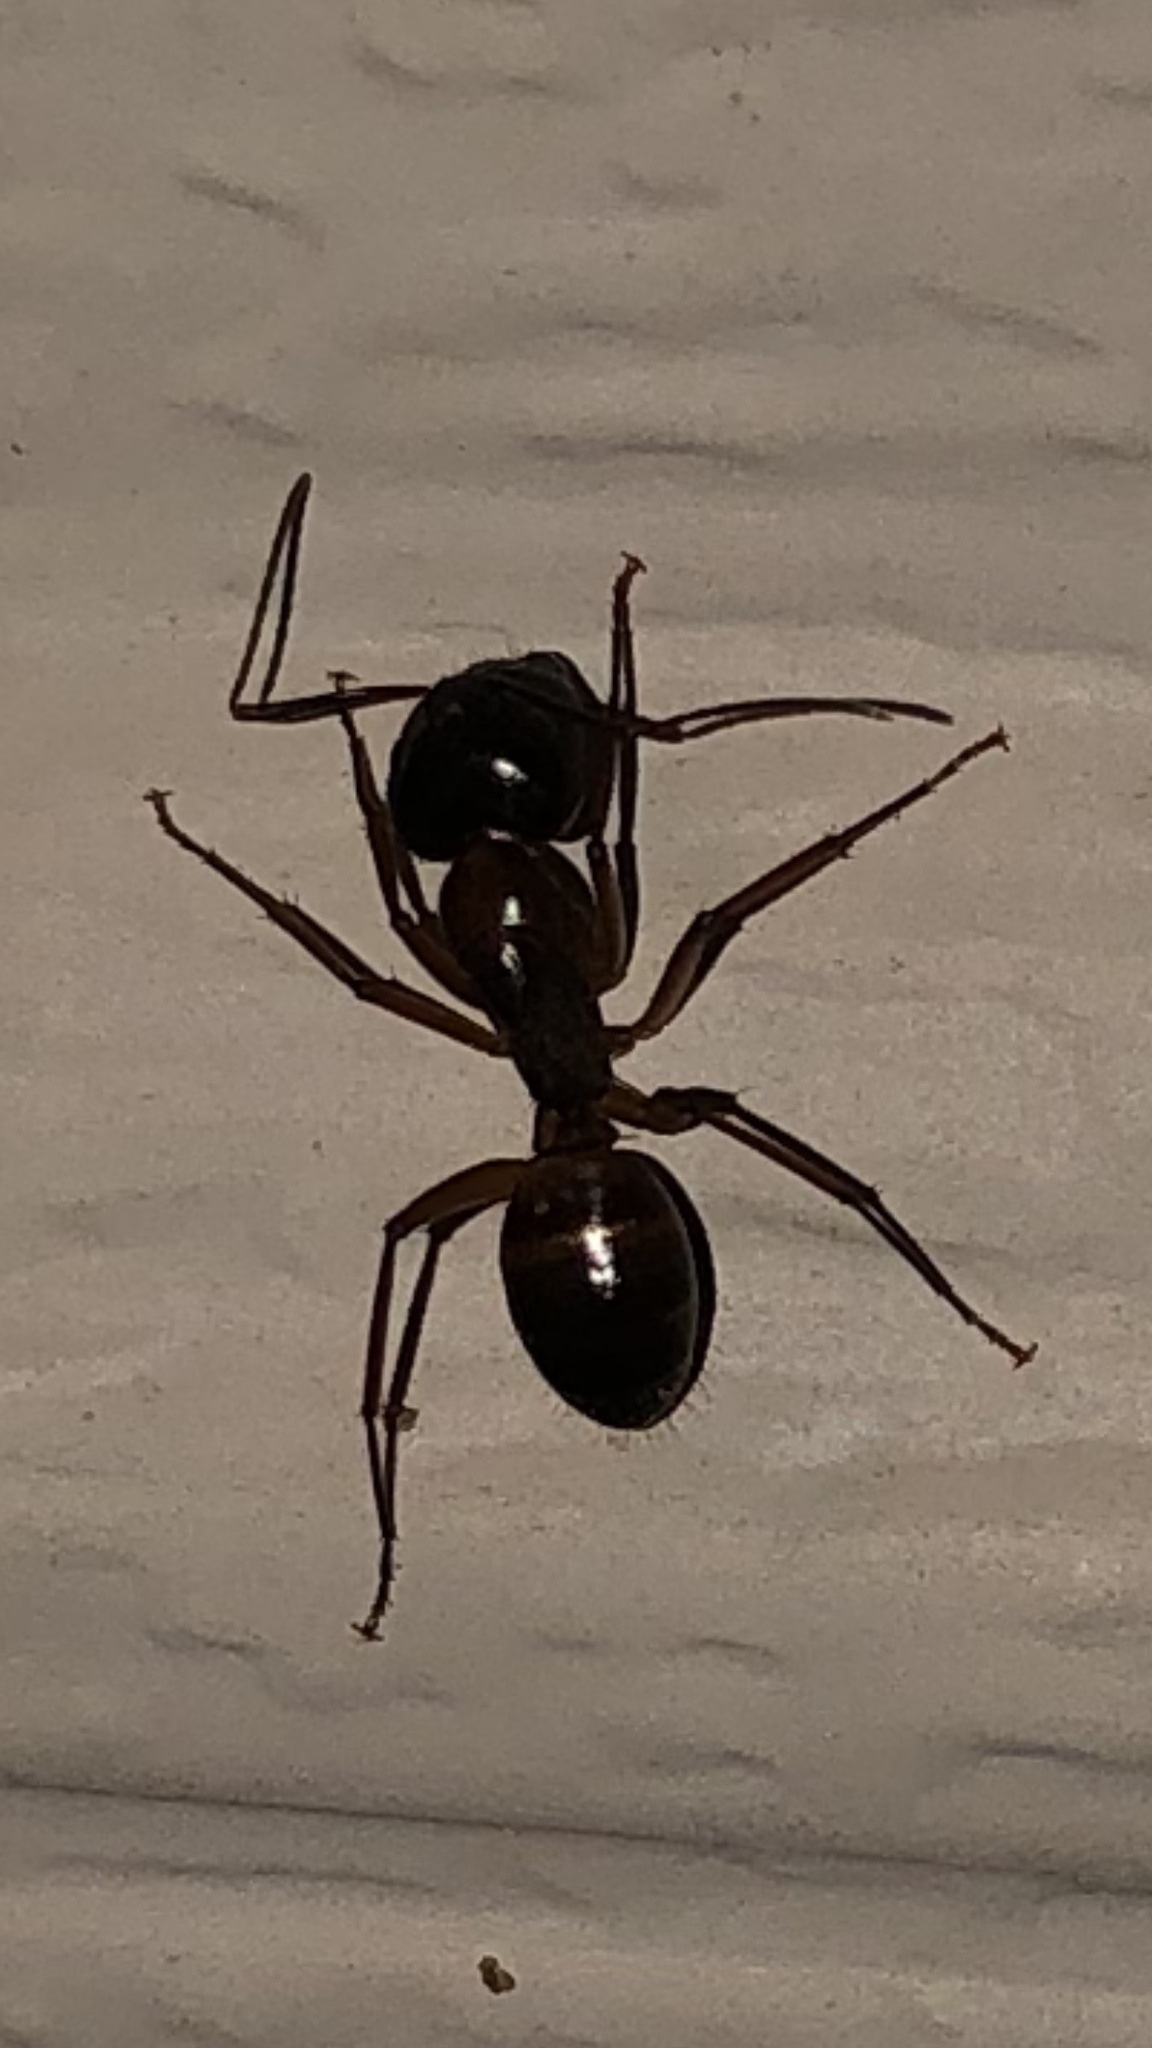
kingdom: Animalia
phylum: Arthropoda
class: Insecta
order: Hymenoptera
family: Formicidae
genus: Camponotus
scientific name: Camponotus americanus
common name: American carpenter ant
